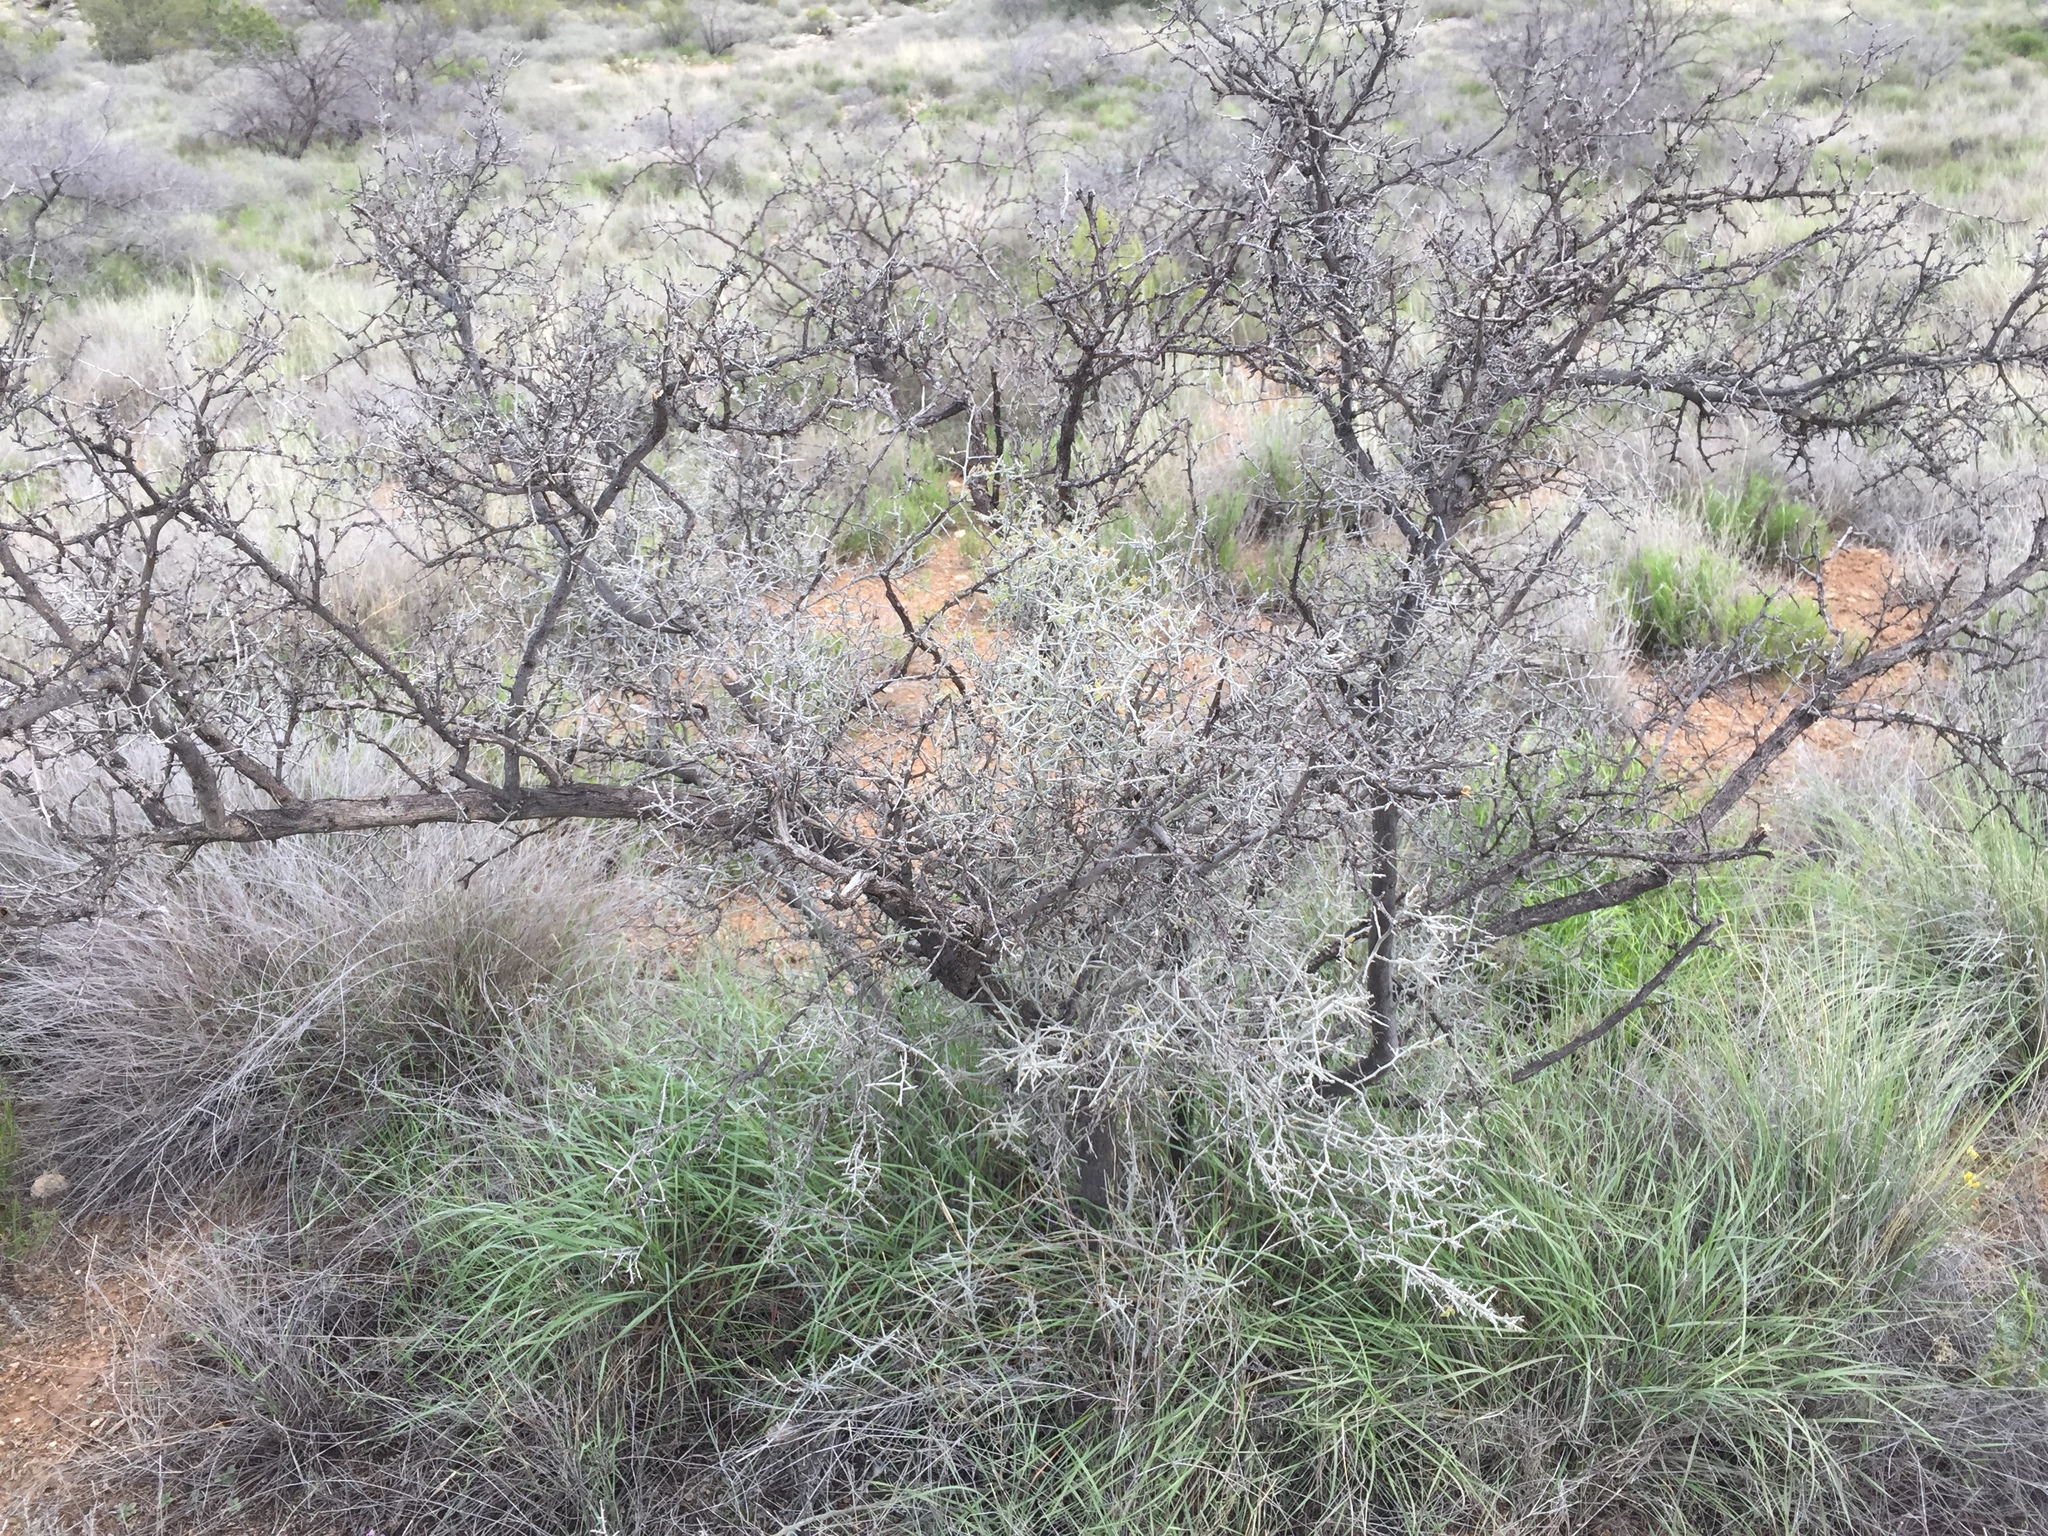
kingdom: Plantae
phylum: Tracheophyta
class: Magnoliopsida
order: Rosales
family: Rhamnaceae
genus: Sarcomphalus
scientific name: Sarcomphalus obtusifolius
